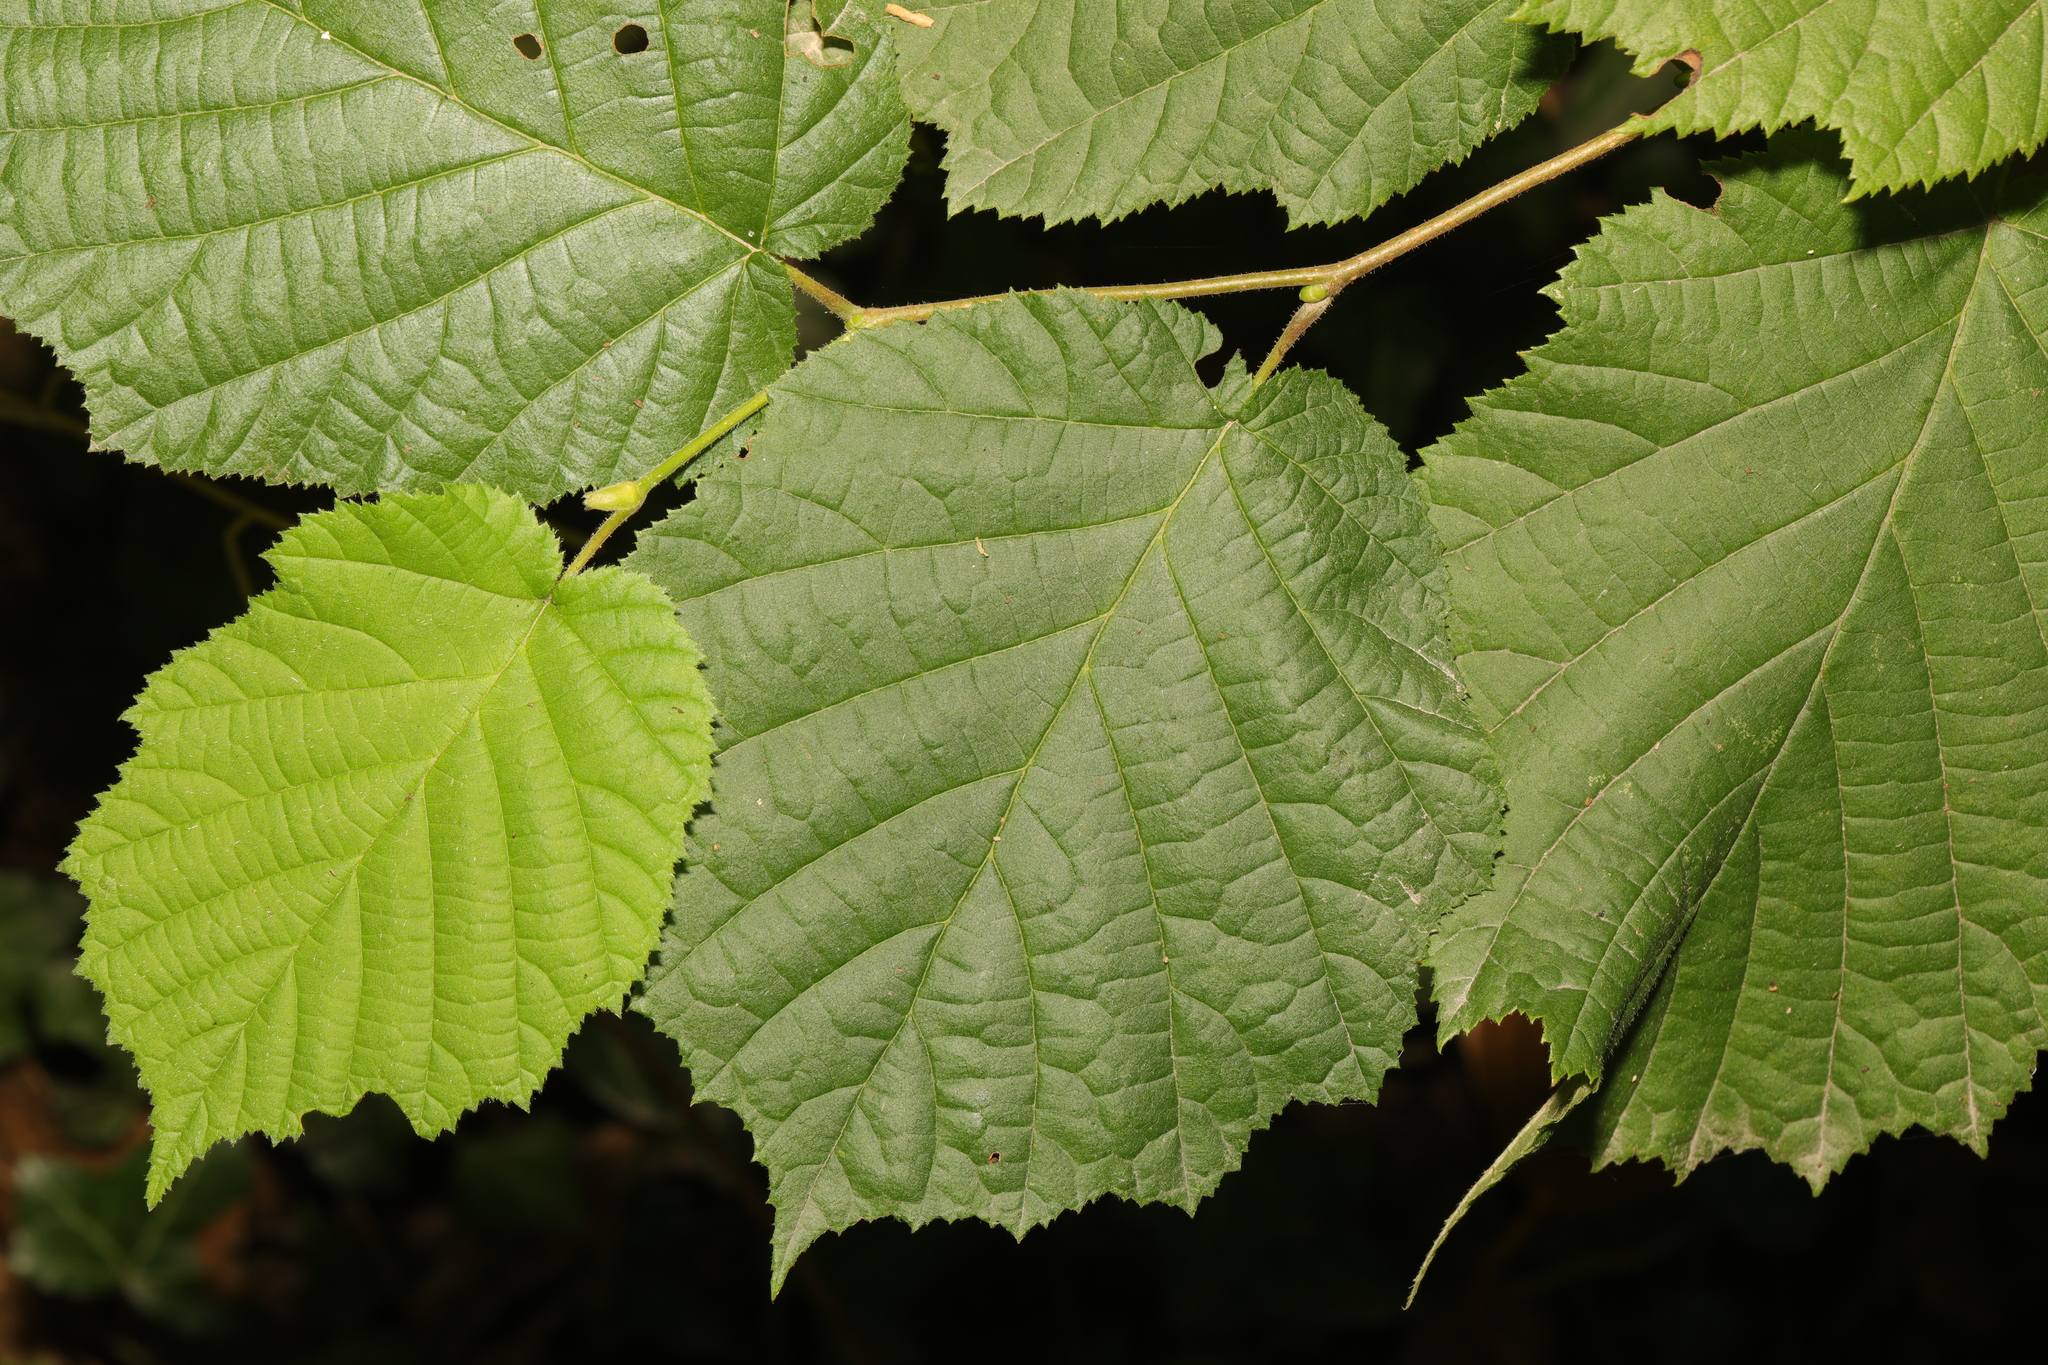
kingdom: Plantae
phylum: Tracheophyta
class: Magnoliopsida
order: Fagales
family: Betulaceae
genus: Corylus
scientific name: Corylus avellana
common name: European hazel
